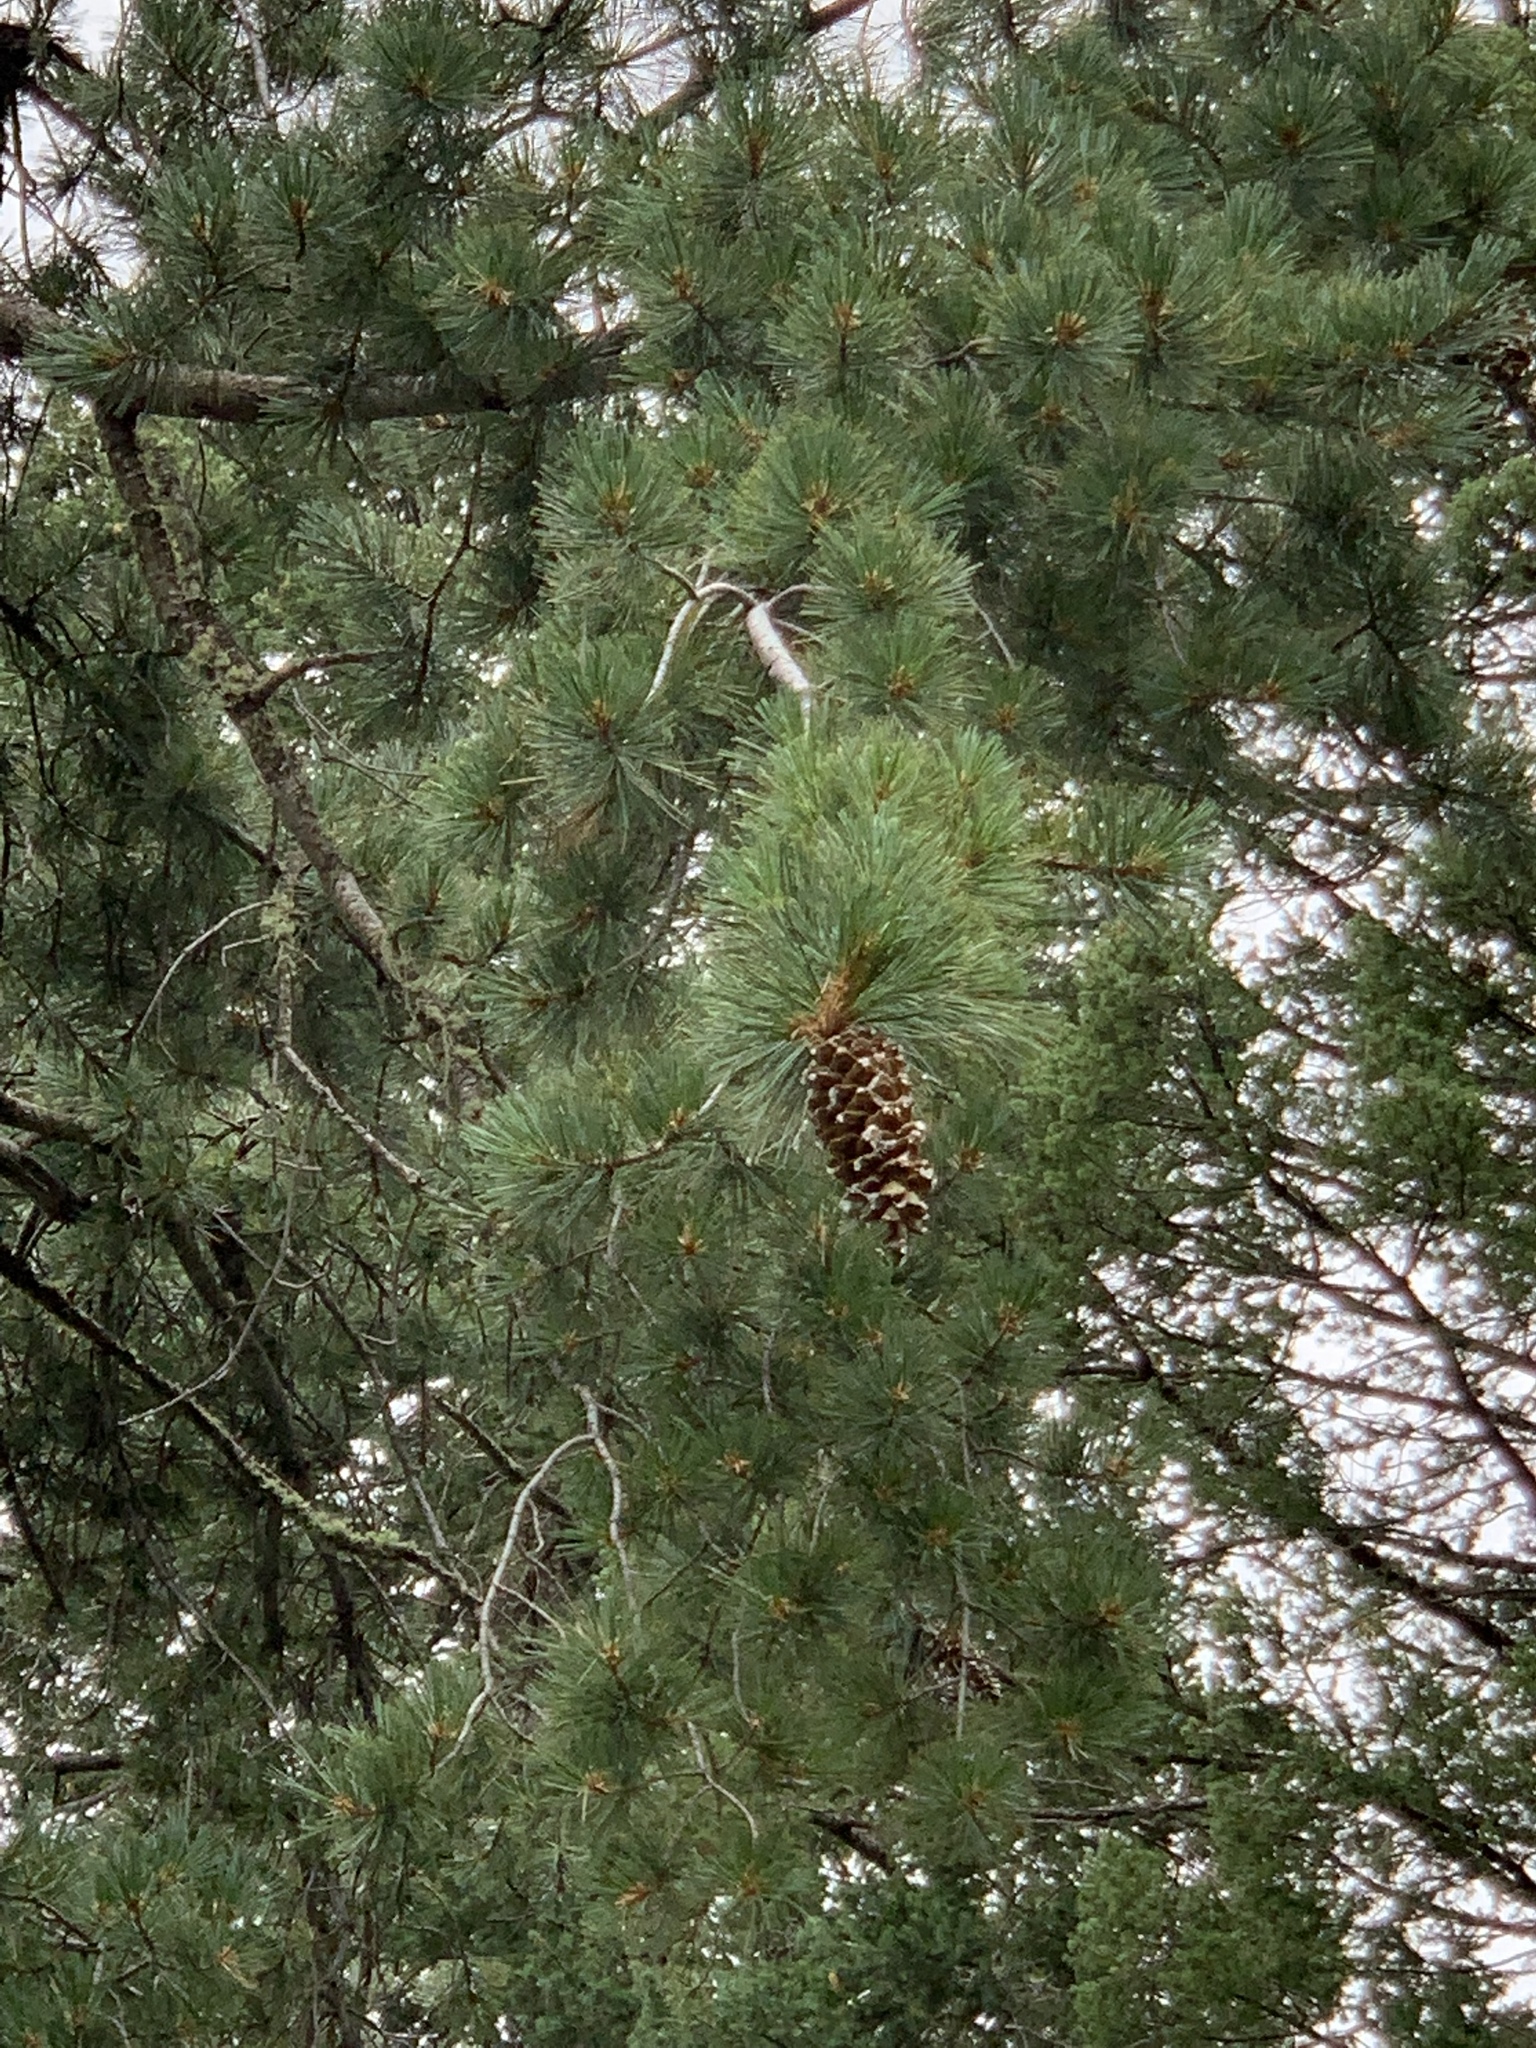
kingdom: Plantae
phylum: Tracheophyta
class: Pinopsida
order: Pinales
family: Pinaceae
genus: Pinus
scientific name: Pinus strobiformis
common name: Southwestern white pine
